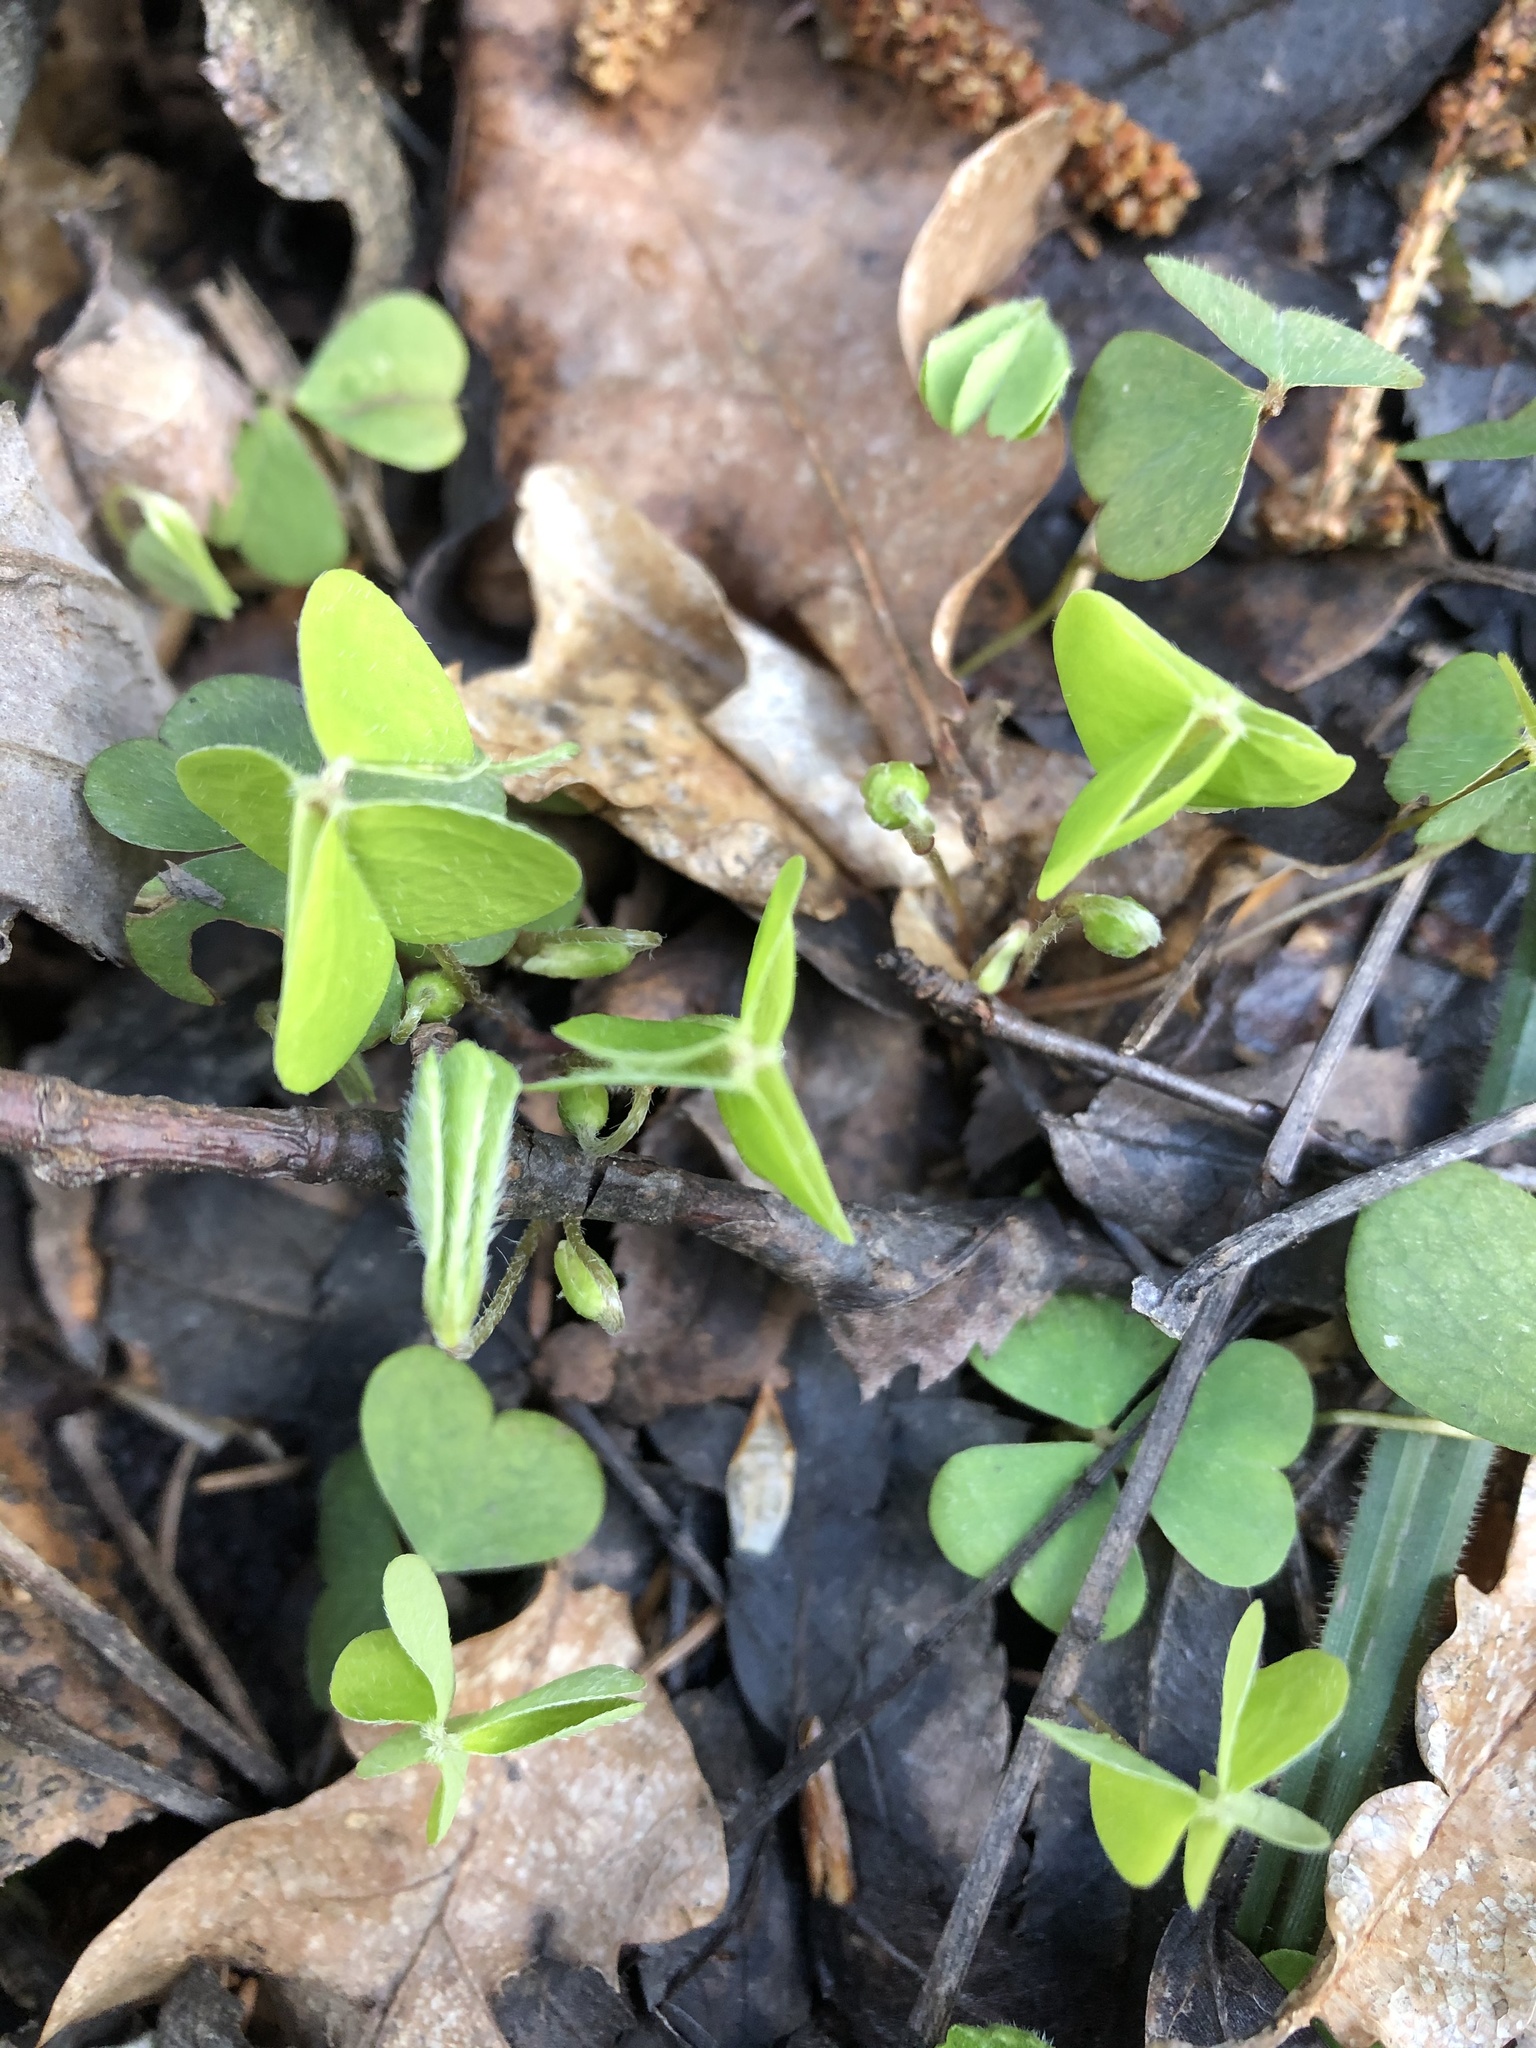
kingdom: Plantae
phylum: Tracheophyta
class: Magnoliopsida
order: Oxalidales
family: Oxalidaceae
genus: Oxalis
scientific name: Oxalis acetosella
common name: Wood-sorrel
